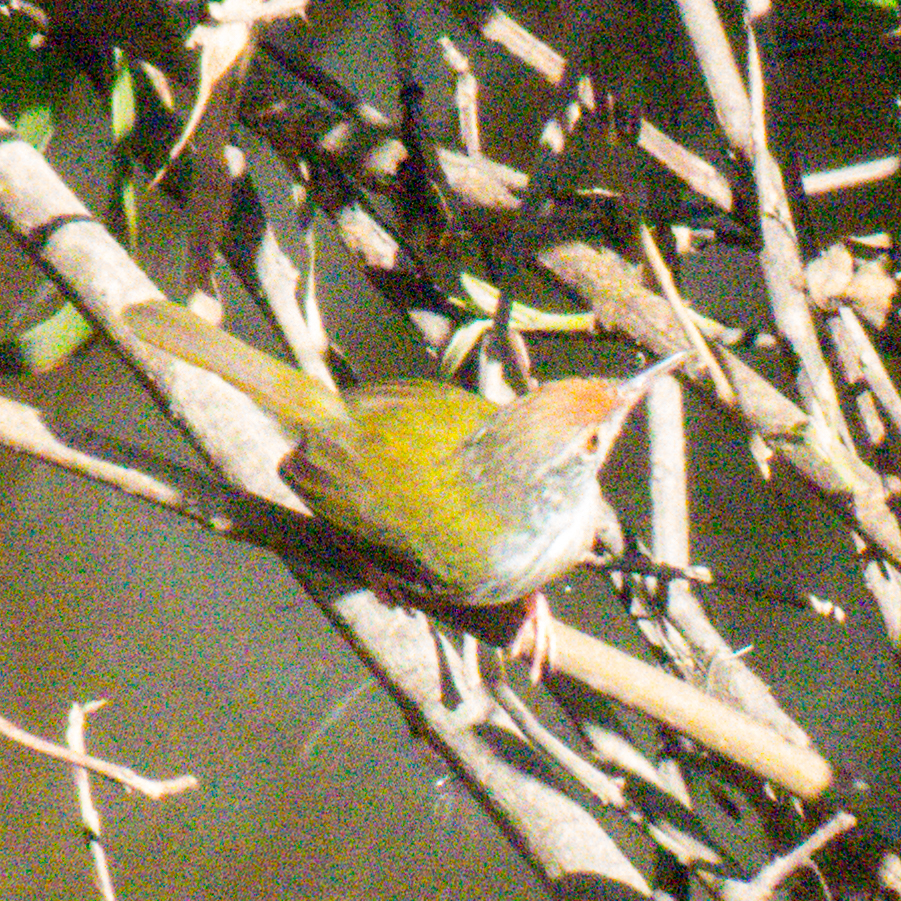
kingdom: Animalia
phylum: Chordata
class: Aves
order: Passeriformes
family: Cisticolidae
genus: Orthotomus
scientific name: Orthotomus sutorius
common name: Common tailorbird
